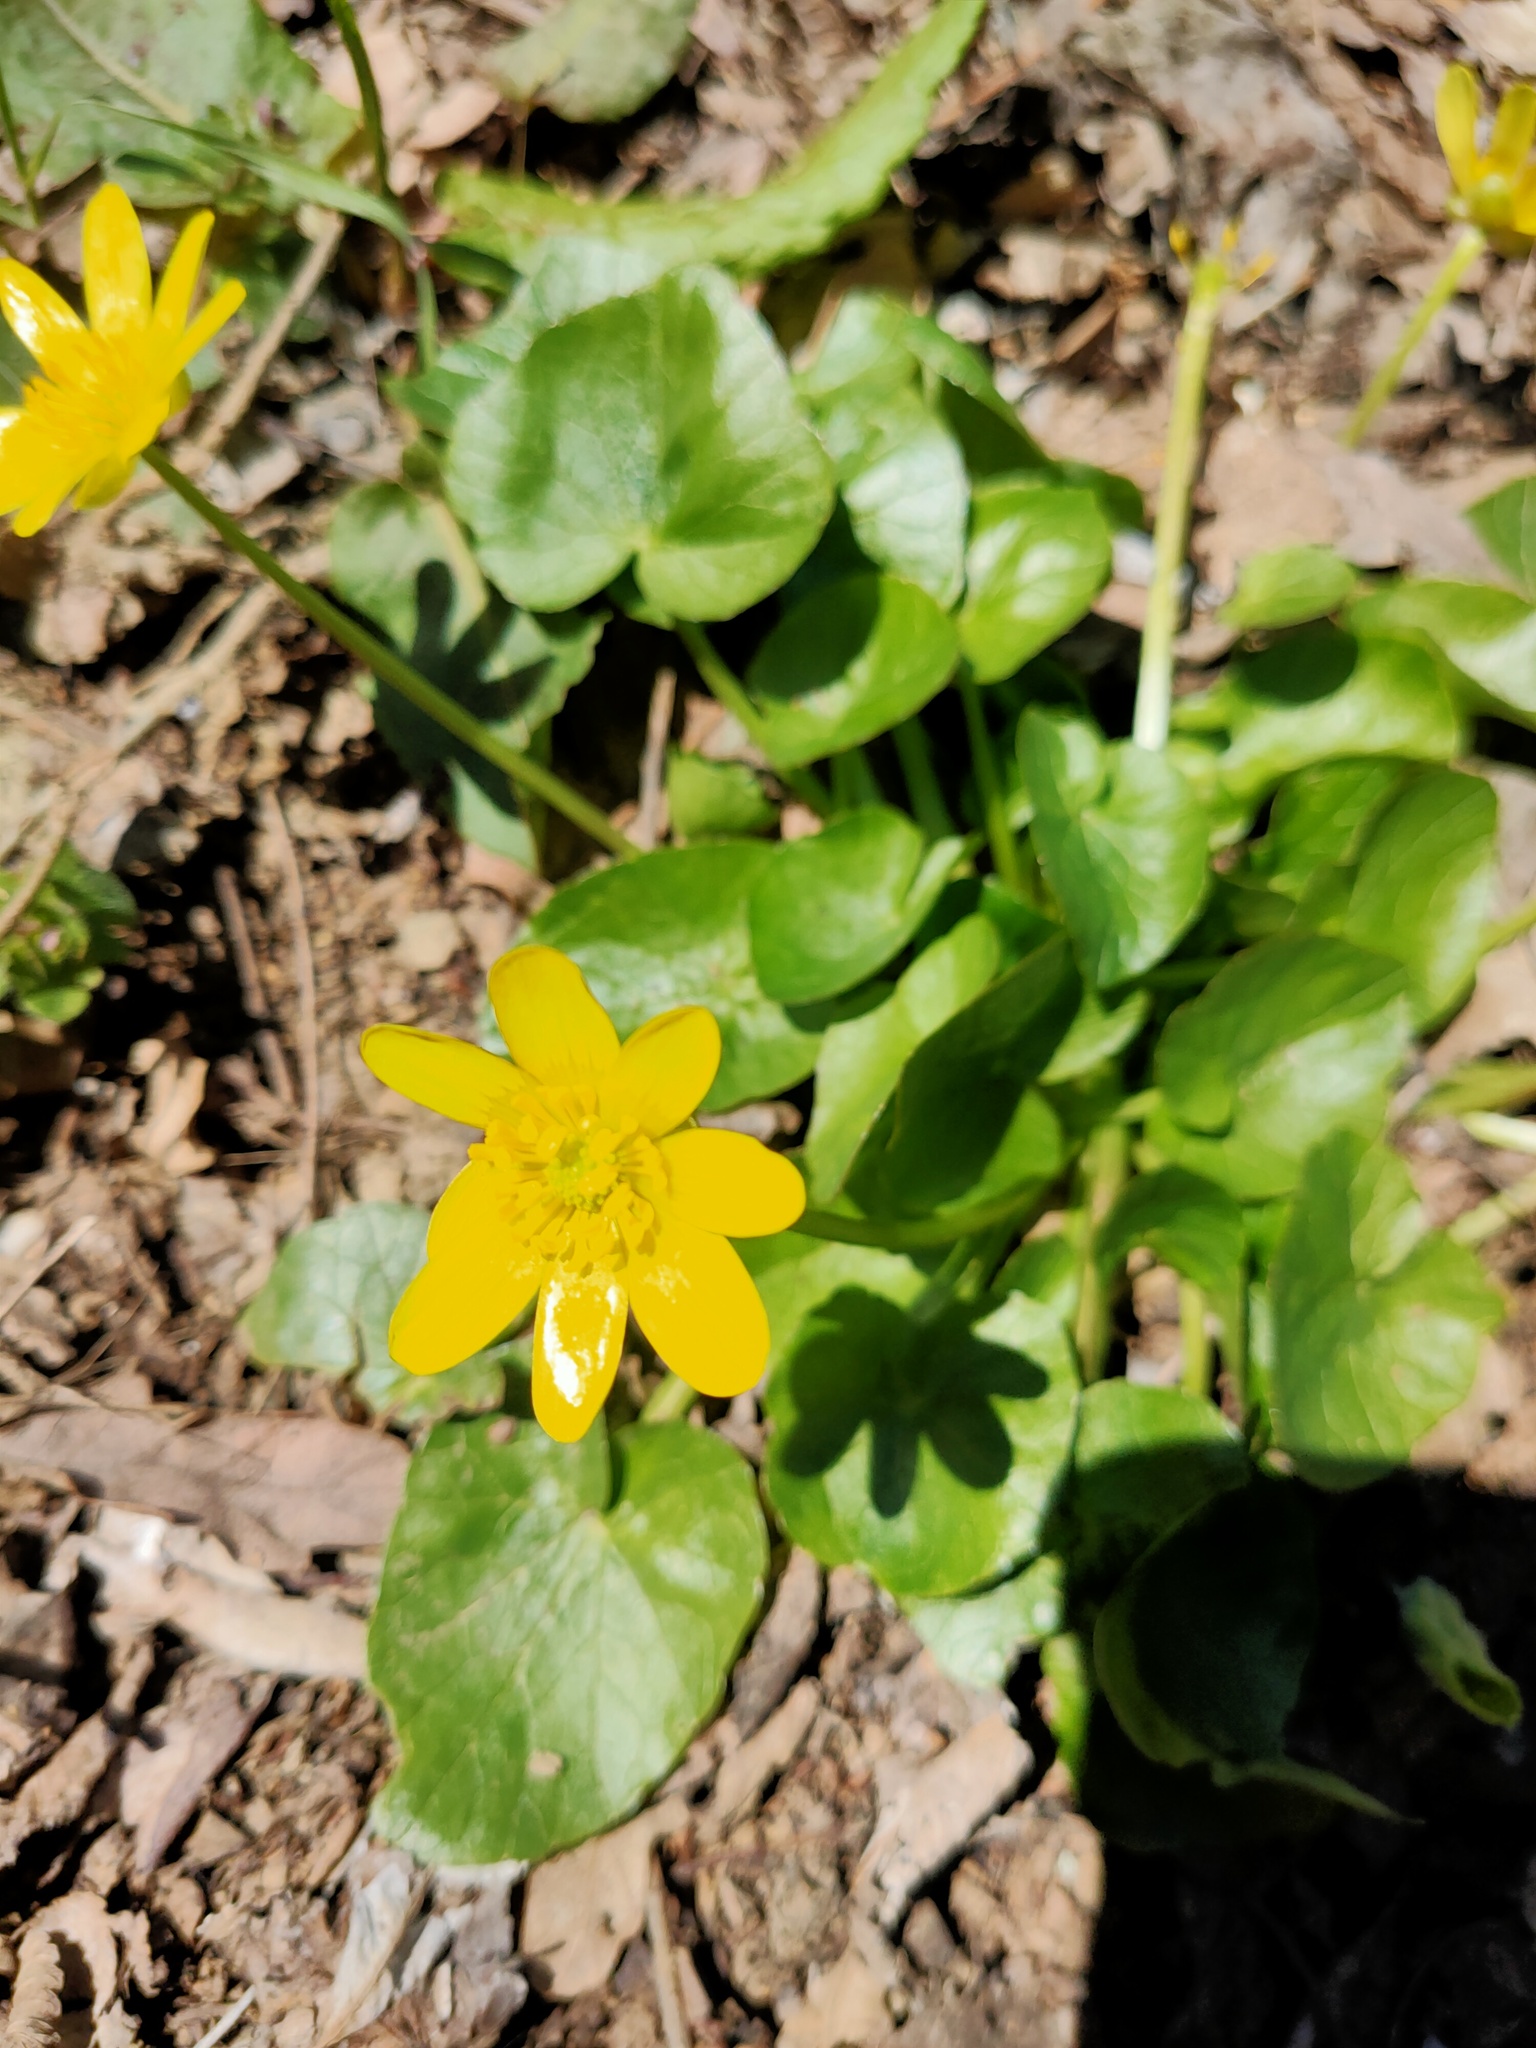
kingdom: Plantae
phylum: Tracheophyta
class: Magnoliopsida
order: Ranunculales
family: Ranunculaceae
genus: Ficaria
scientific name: Ficaria verna
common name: Lesser celandine
